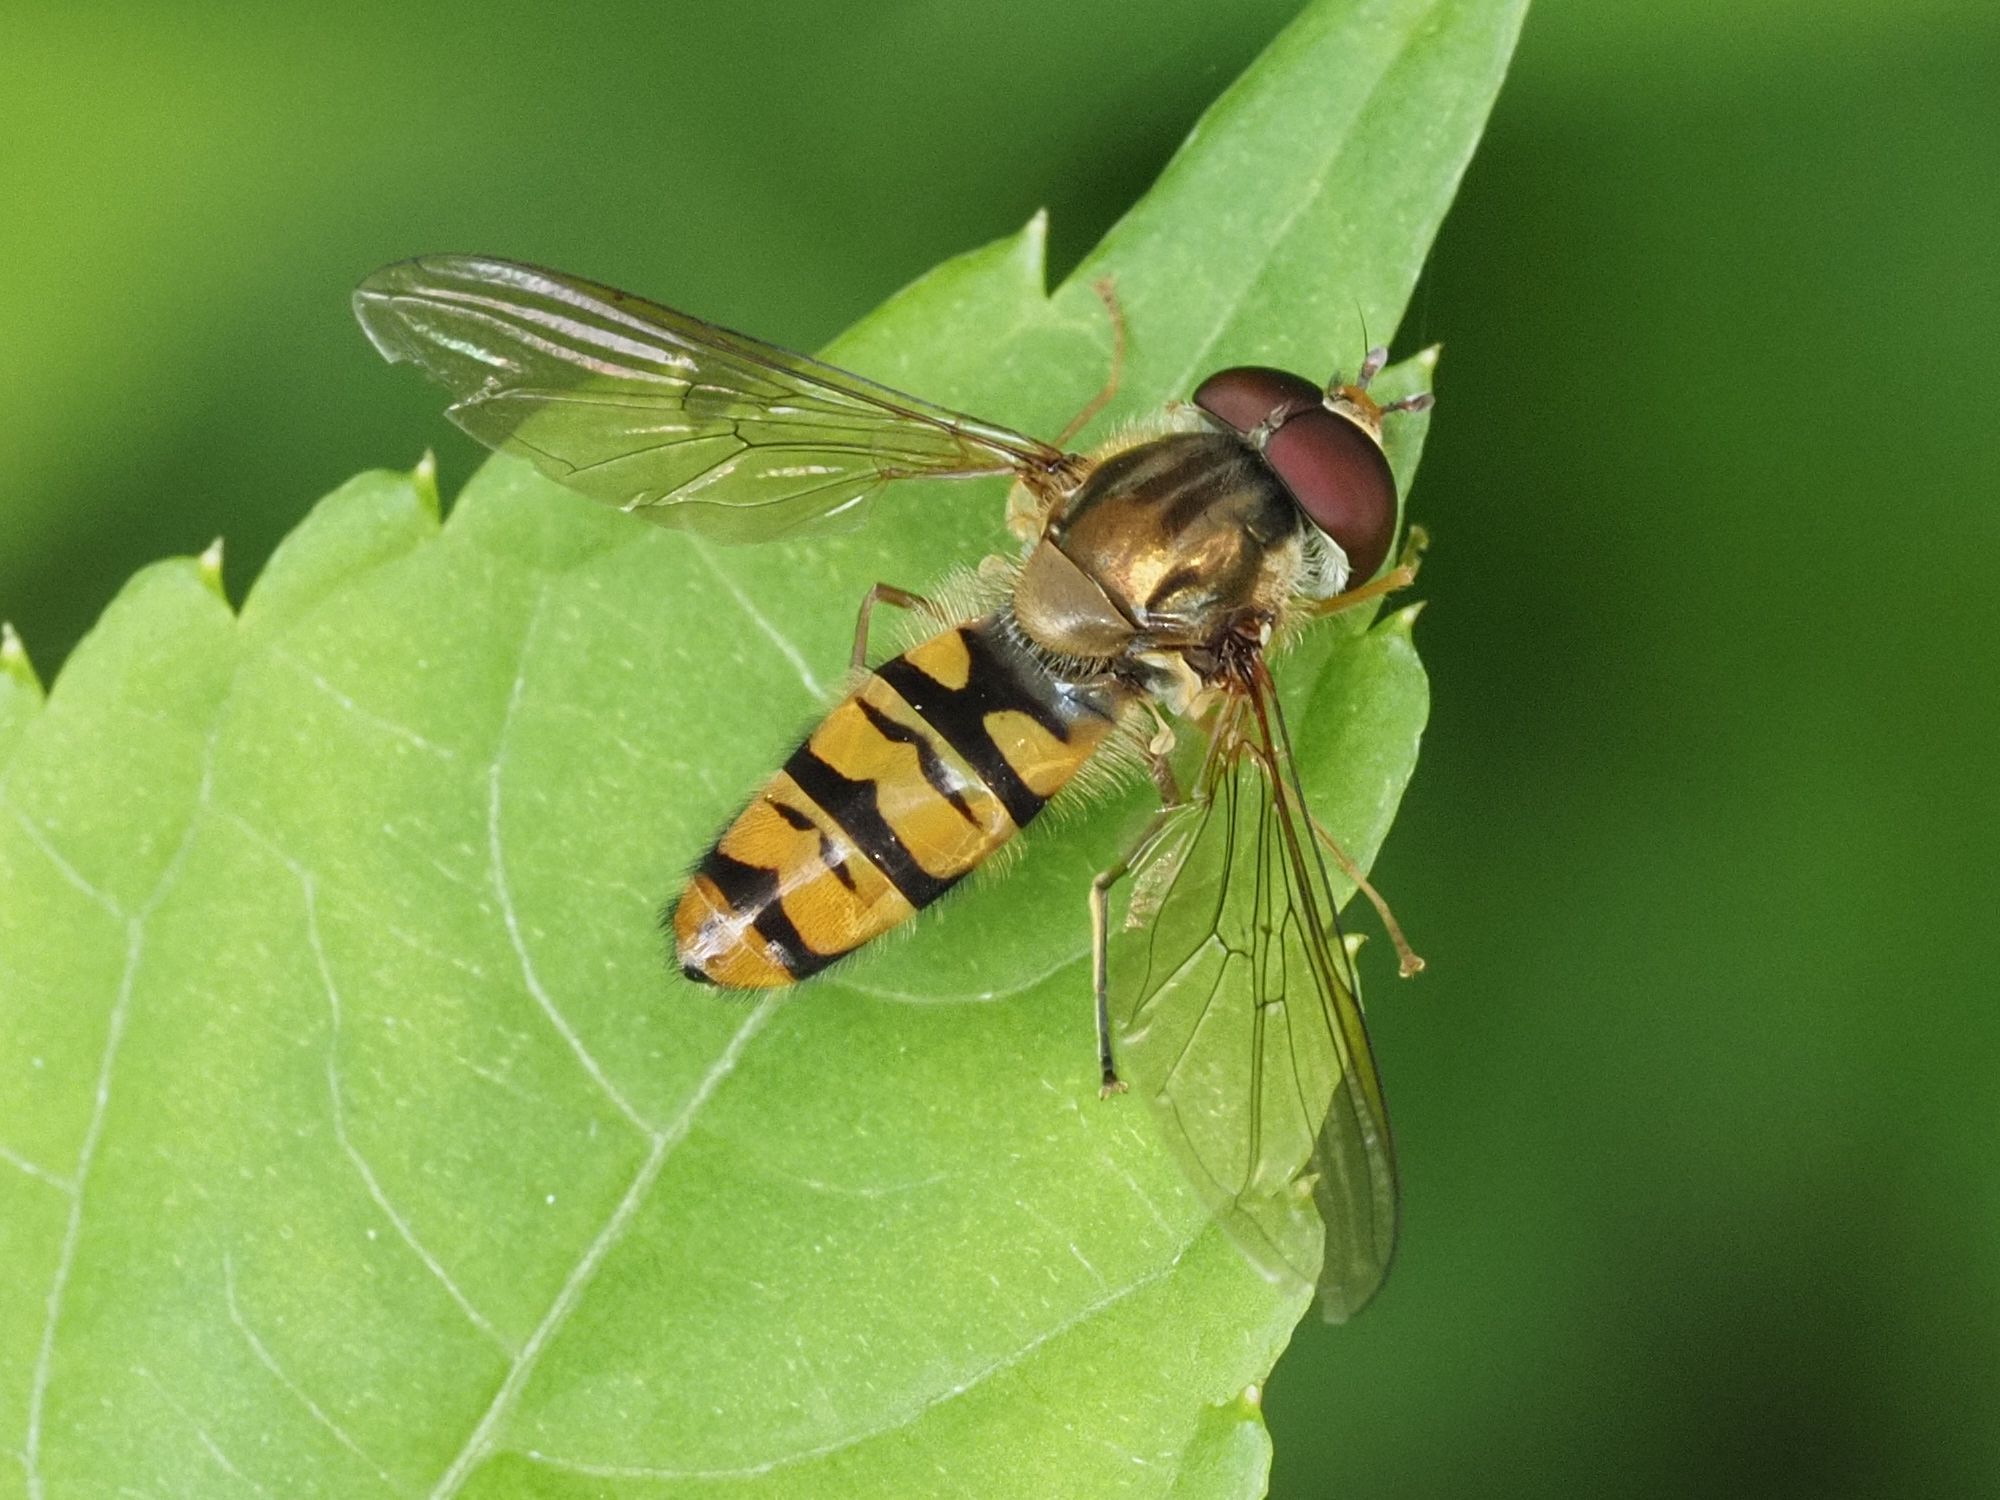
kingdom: Animalia
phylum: Arthropoda
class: Insecta
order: Diptera
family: Syrphidae
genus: Episyrphus
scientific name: Episyrphus balteatus
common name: Marmalade hoverfly
